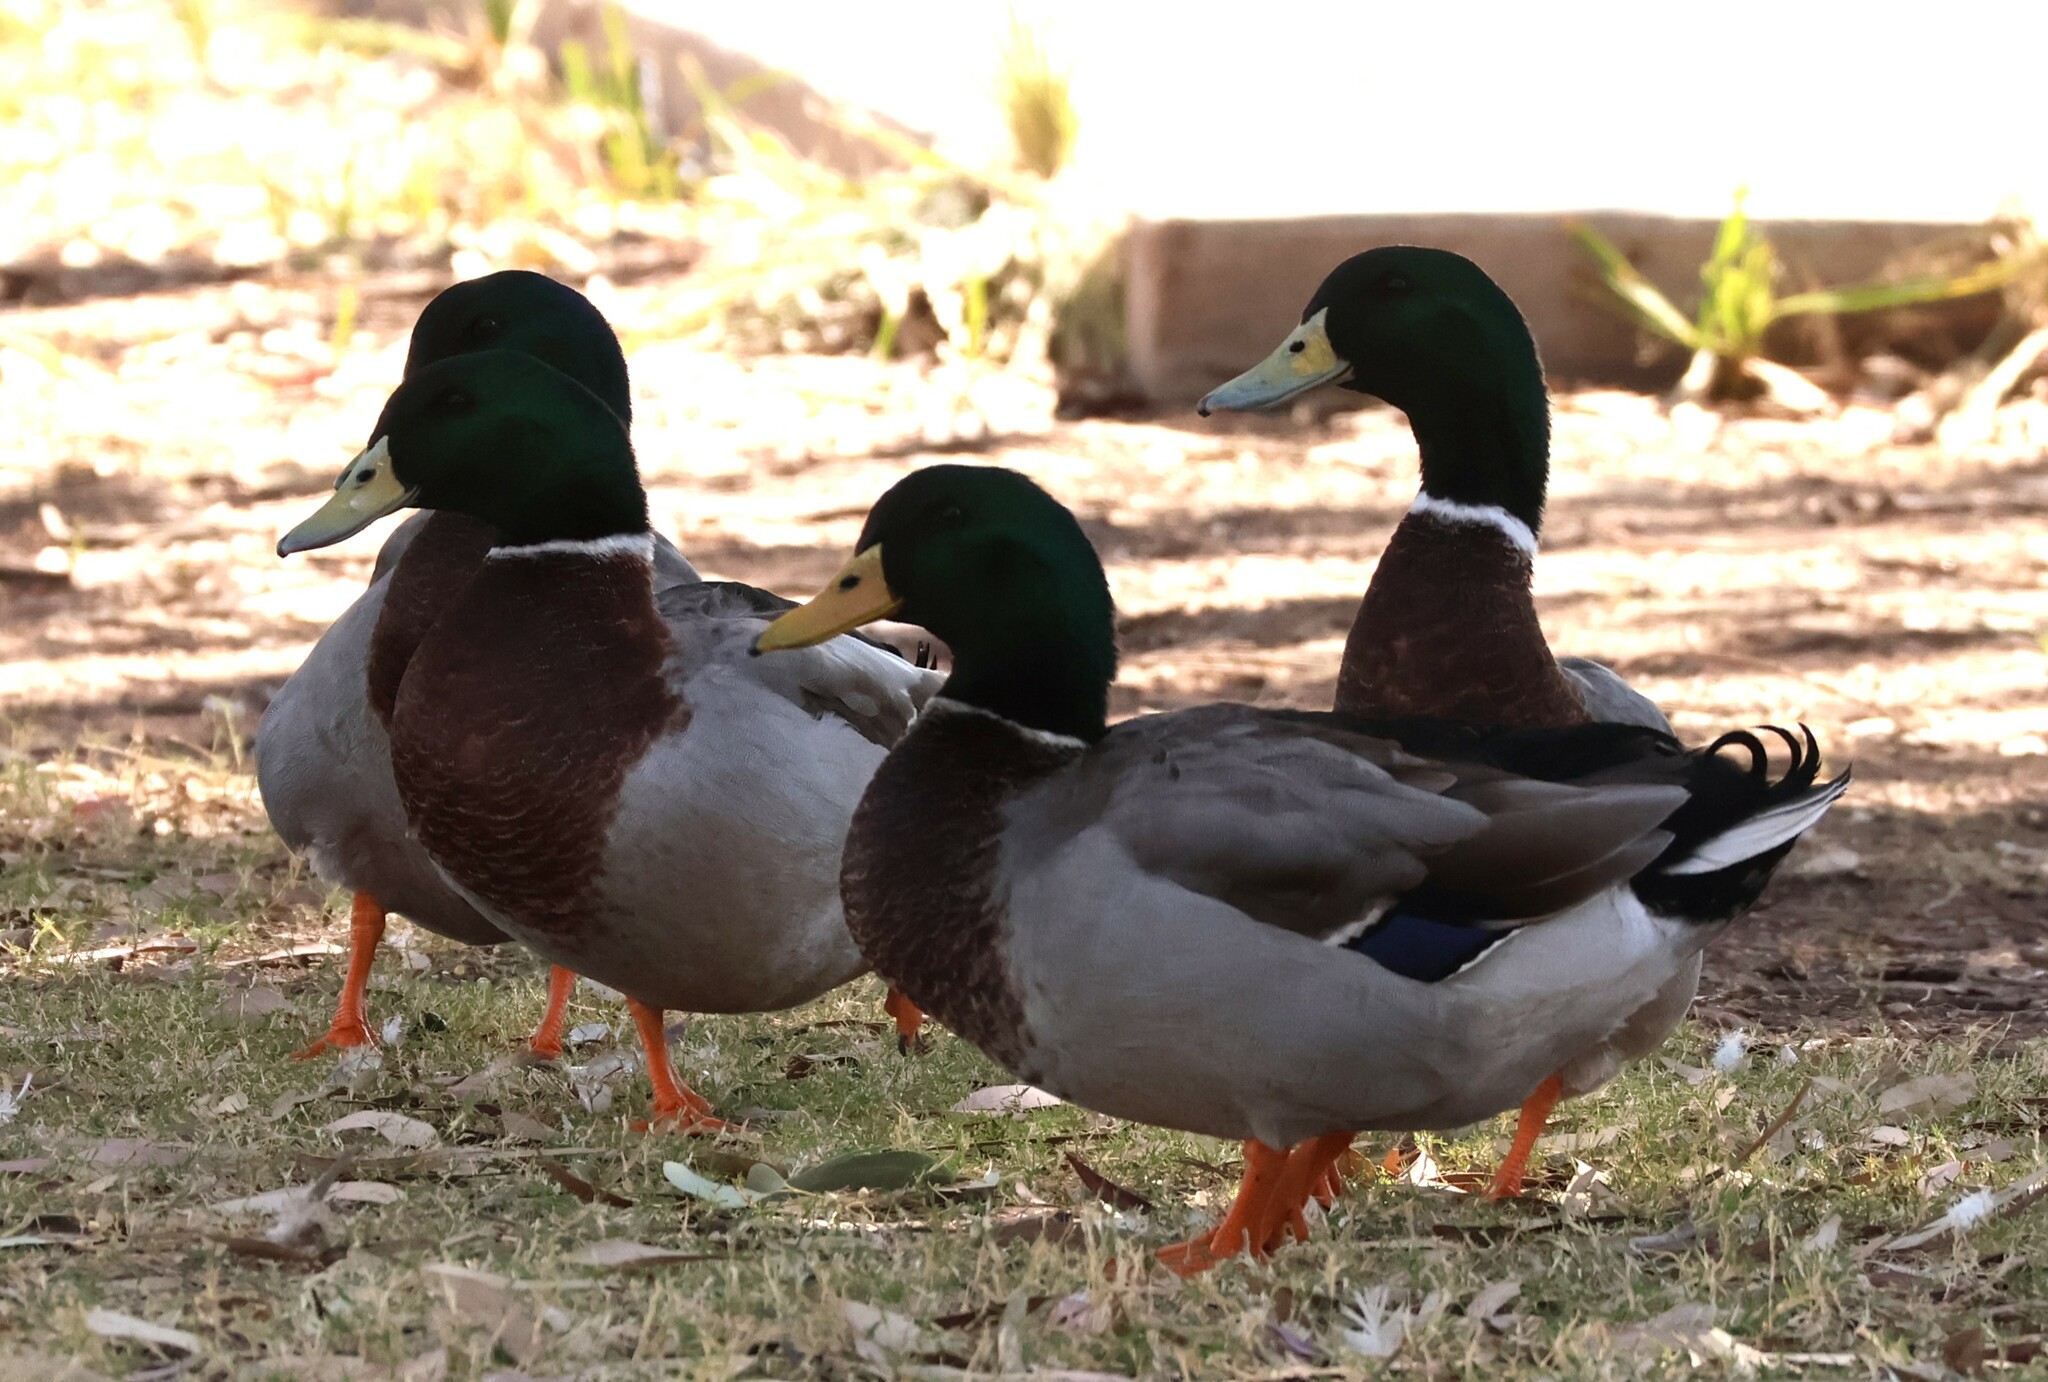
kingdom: Animalia
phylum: Chordata
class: Aves
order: Anseriformes
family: Anatidae
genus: Anas
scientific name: Anas platyrhynchos
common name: Mallard
